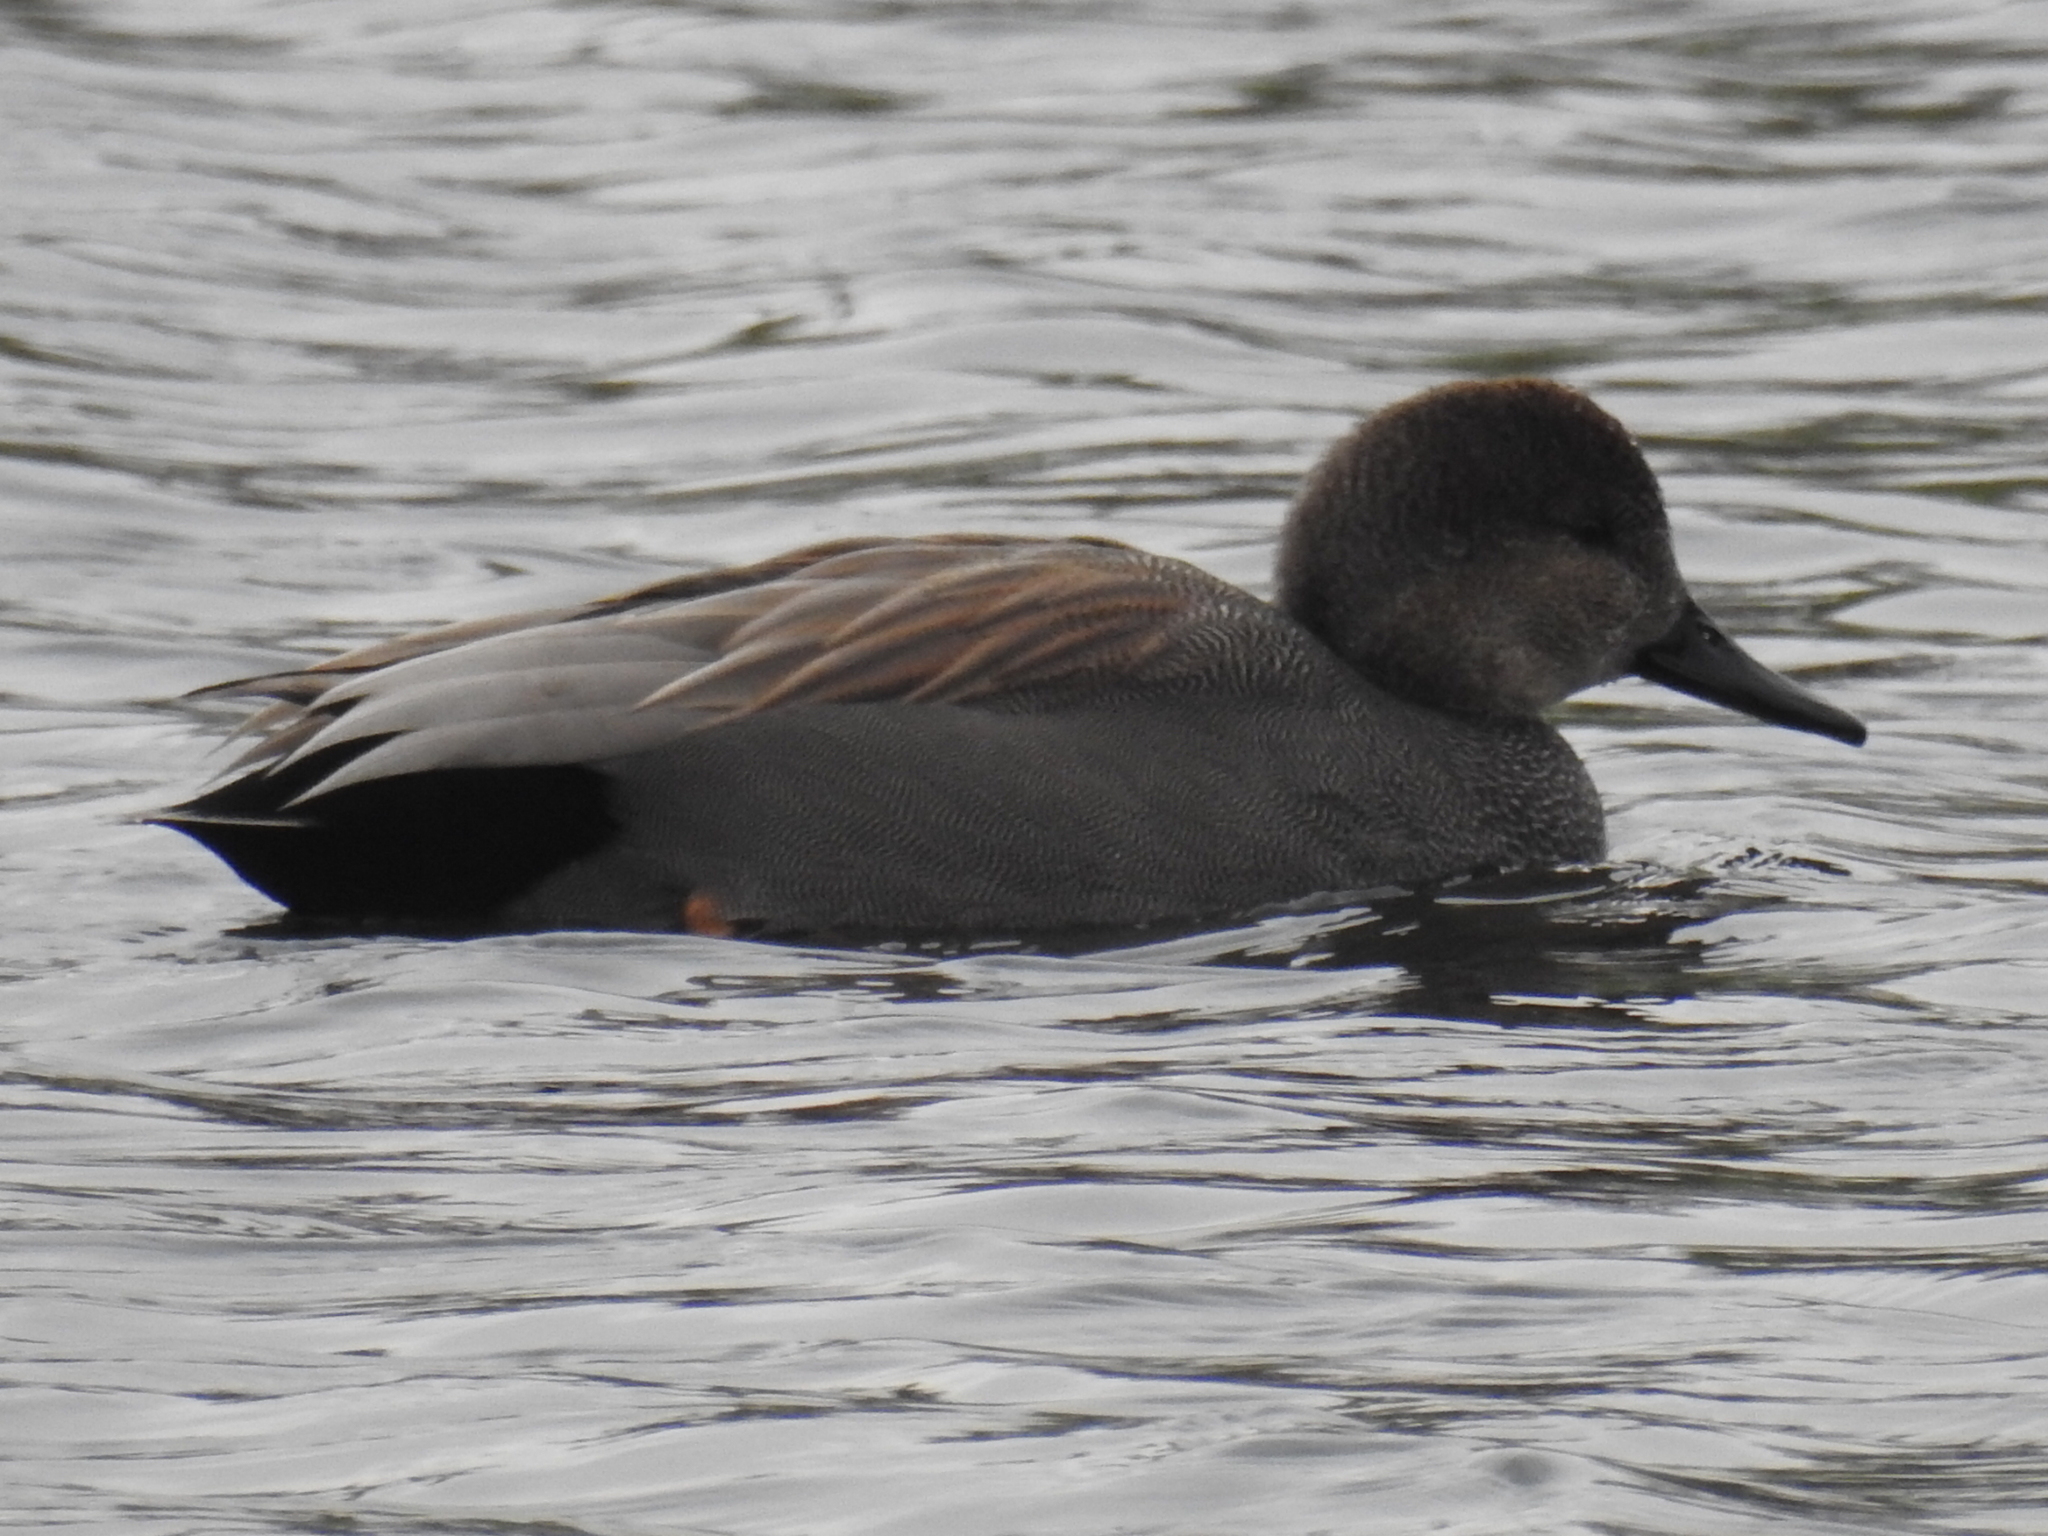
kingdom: Animalia
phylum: Chordata
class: Aves
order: Anseriformes
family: Anatidae
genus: Mareca
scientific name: Mareca strepera
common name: Gadwall
